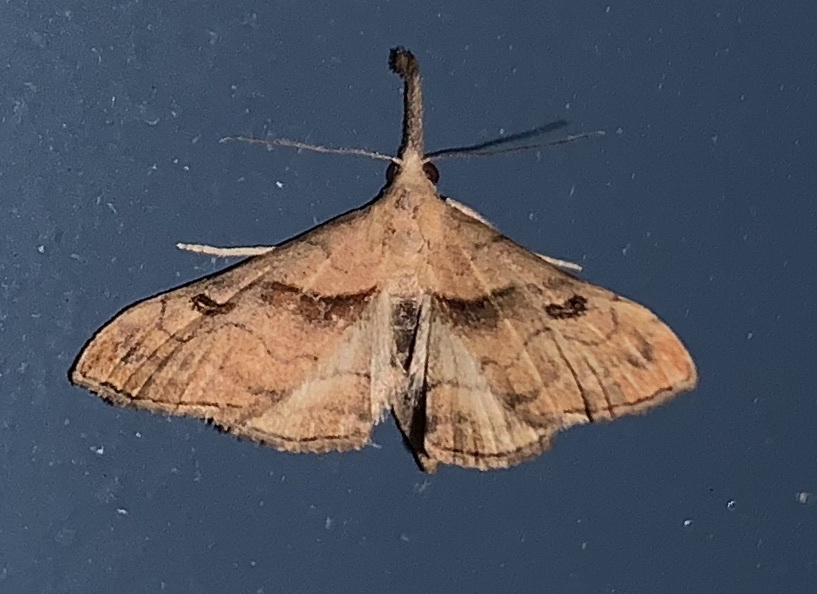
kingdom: Animalia
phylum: Arthropoda
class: Insecta
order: Lepidoptera
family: Erebidae
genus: Palthis
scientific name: Palthis angulalis
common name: Dark-spotted palthis moth
